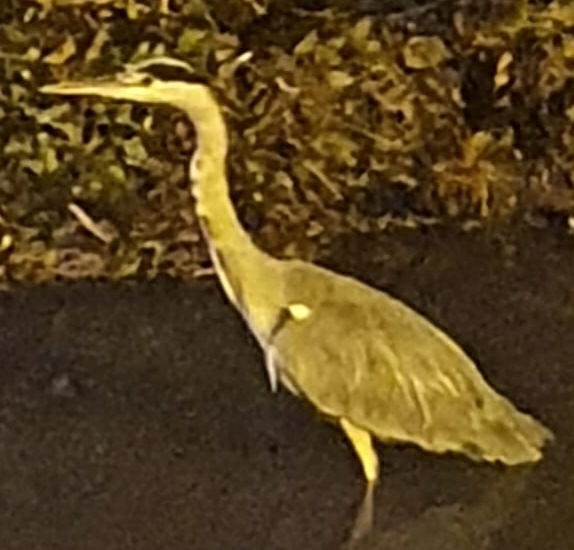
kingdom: Animalia
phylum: Chordata
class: Aves
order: Pelecaniformes
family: Ardeidae
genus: Ardea
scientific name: Ardea cinerea
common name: Grey heron
